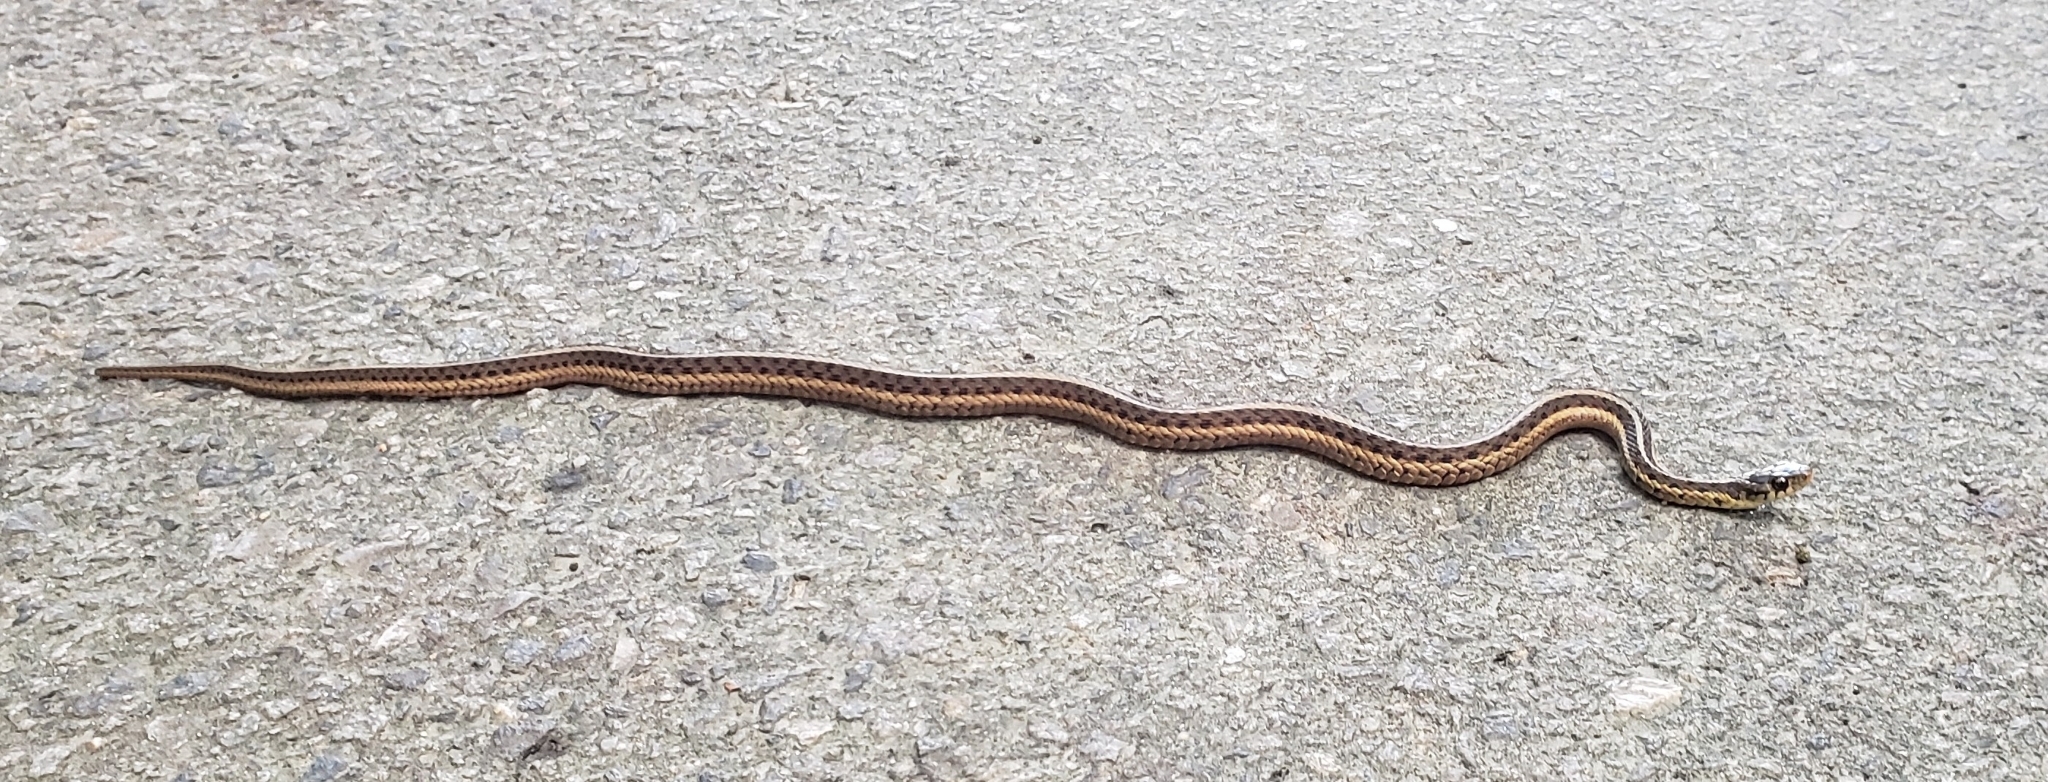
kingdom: Animalia
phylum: Chordata
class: Squamata
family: Colubridae
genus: Thamnophis
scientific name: Thamnophis sirtalis
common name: Common garter snake
